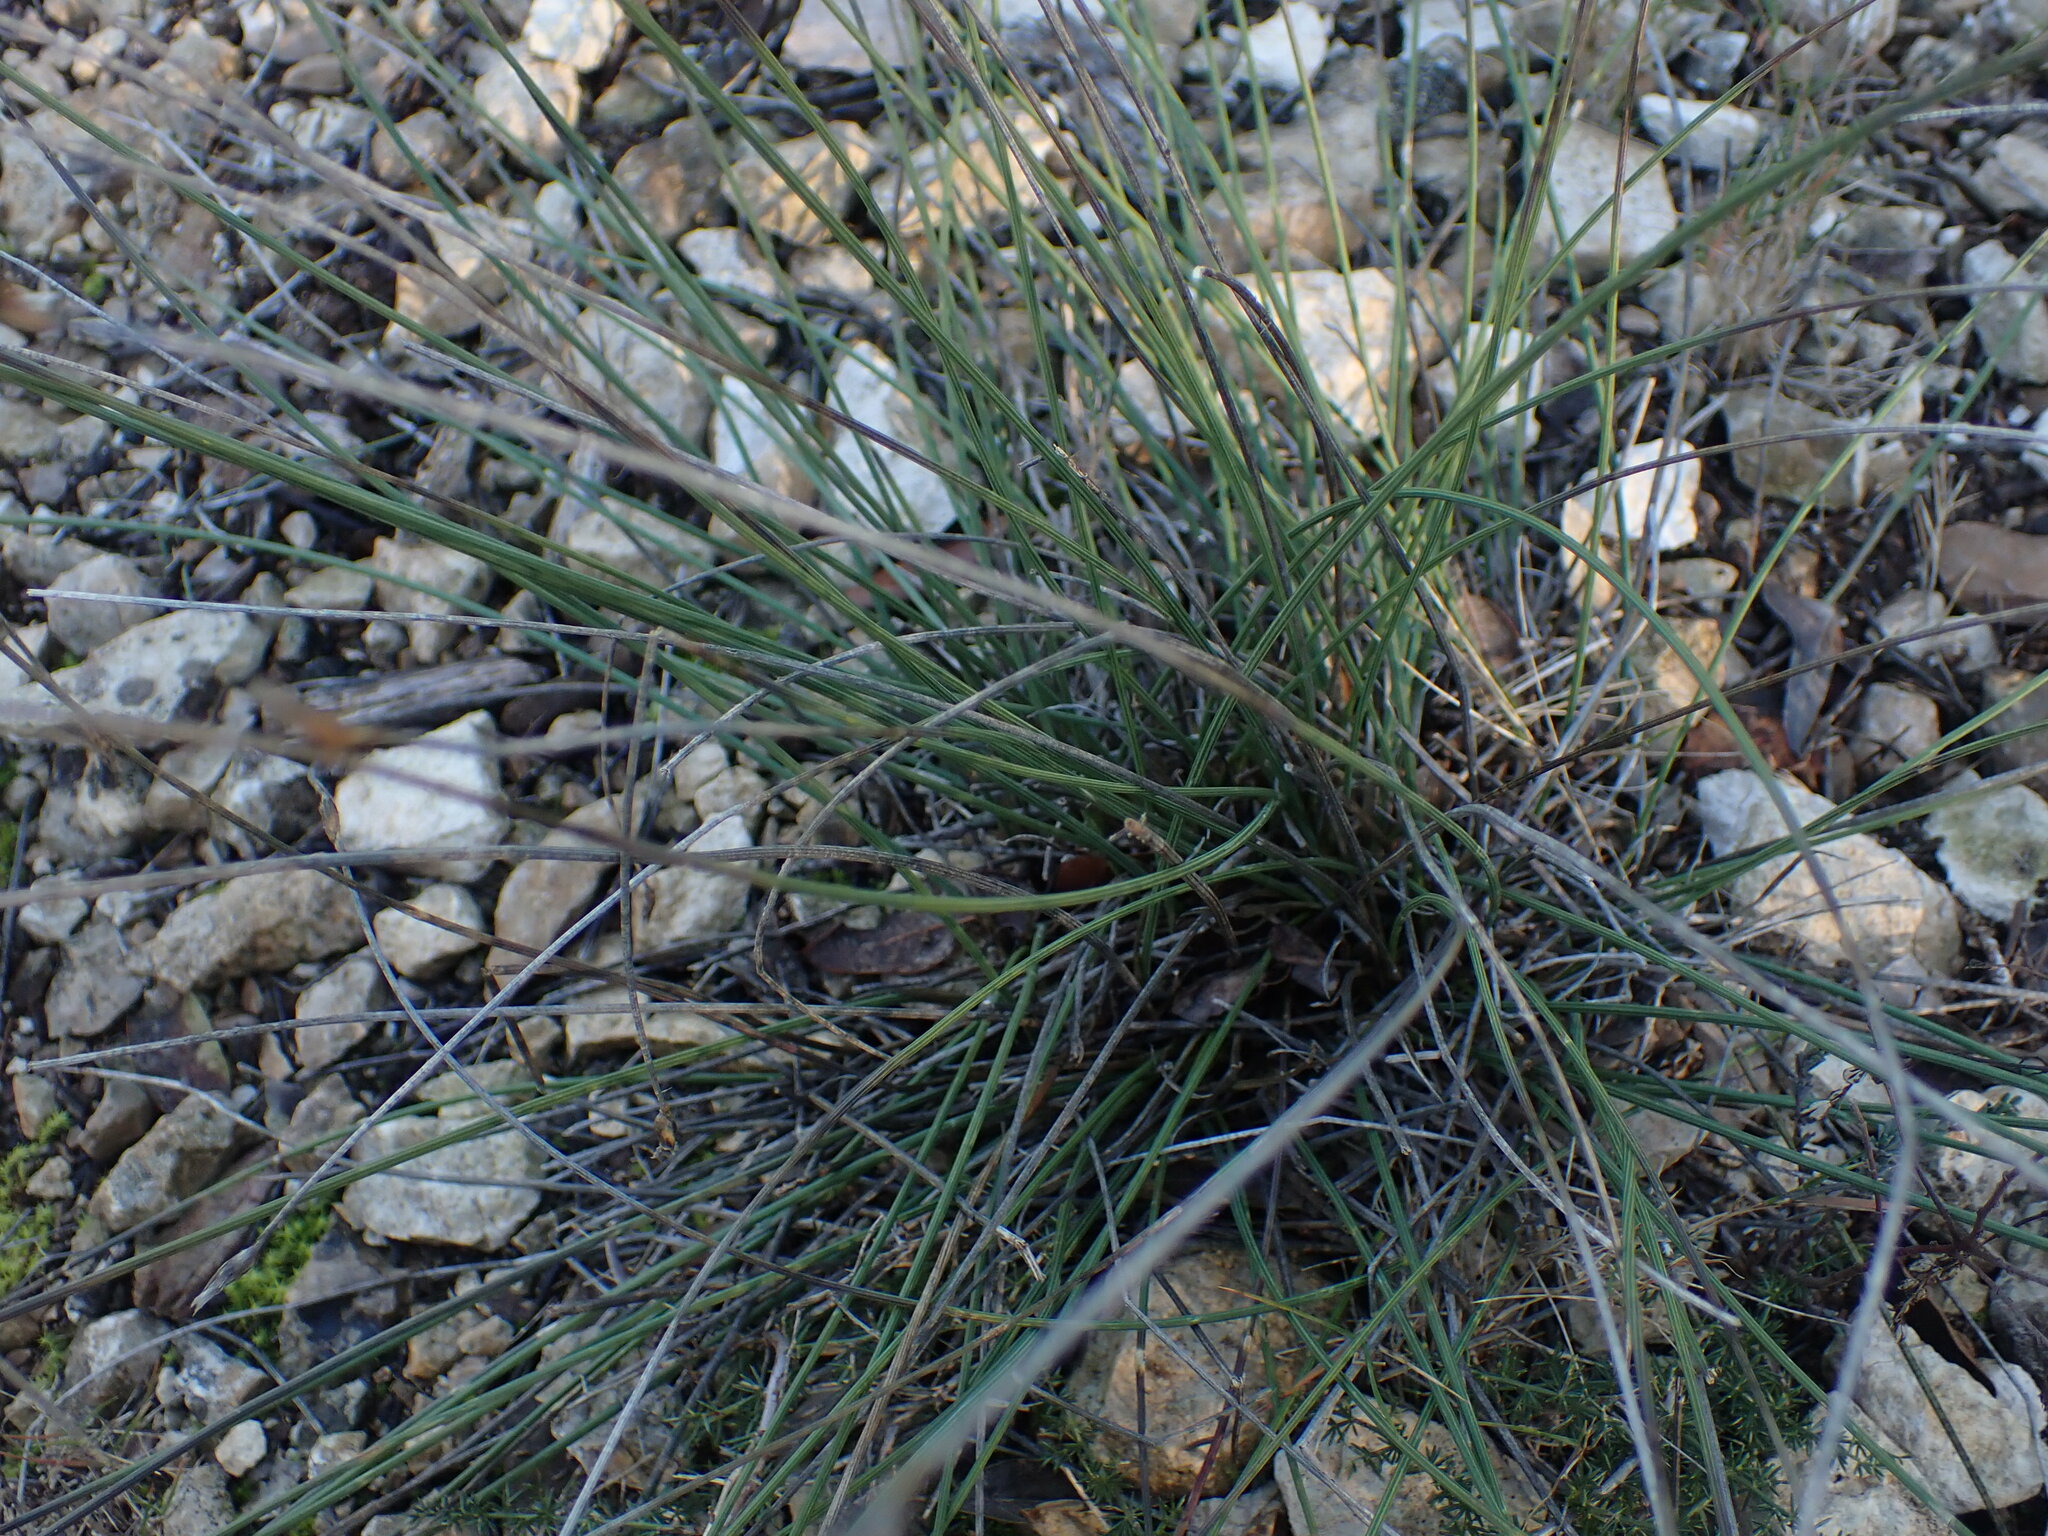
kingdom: Plantae
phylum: Tracheophyta
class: Liliopsida
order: Asparagales
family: Asparagaceae
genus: Aphyllanthes
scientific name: Aphyllanthes monspeliensis
